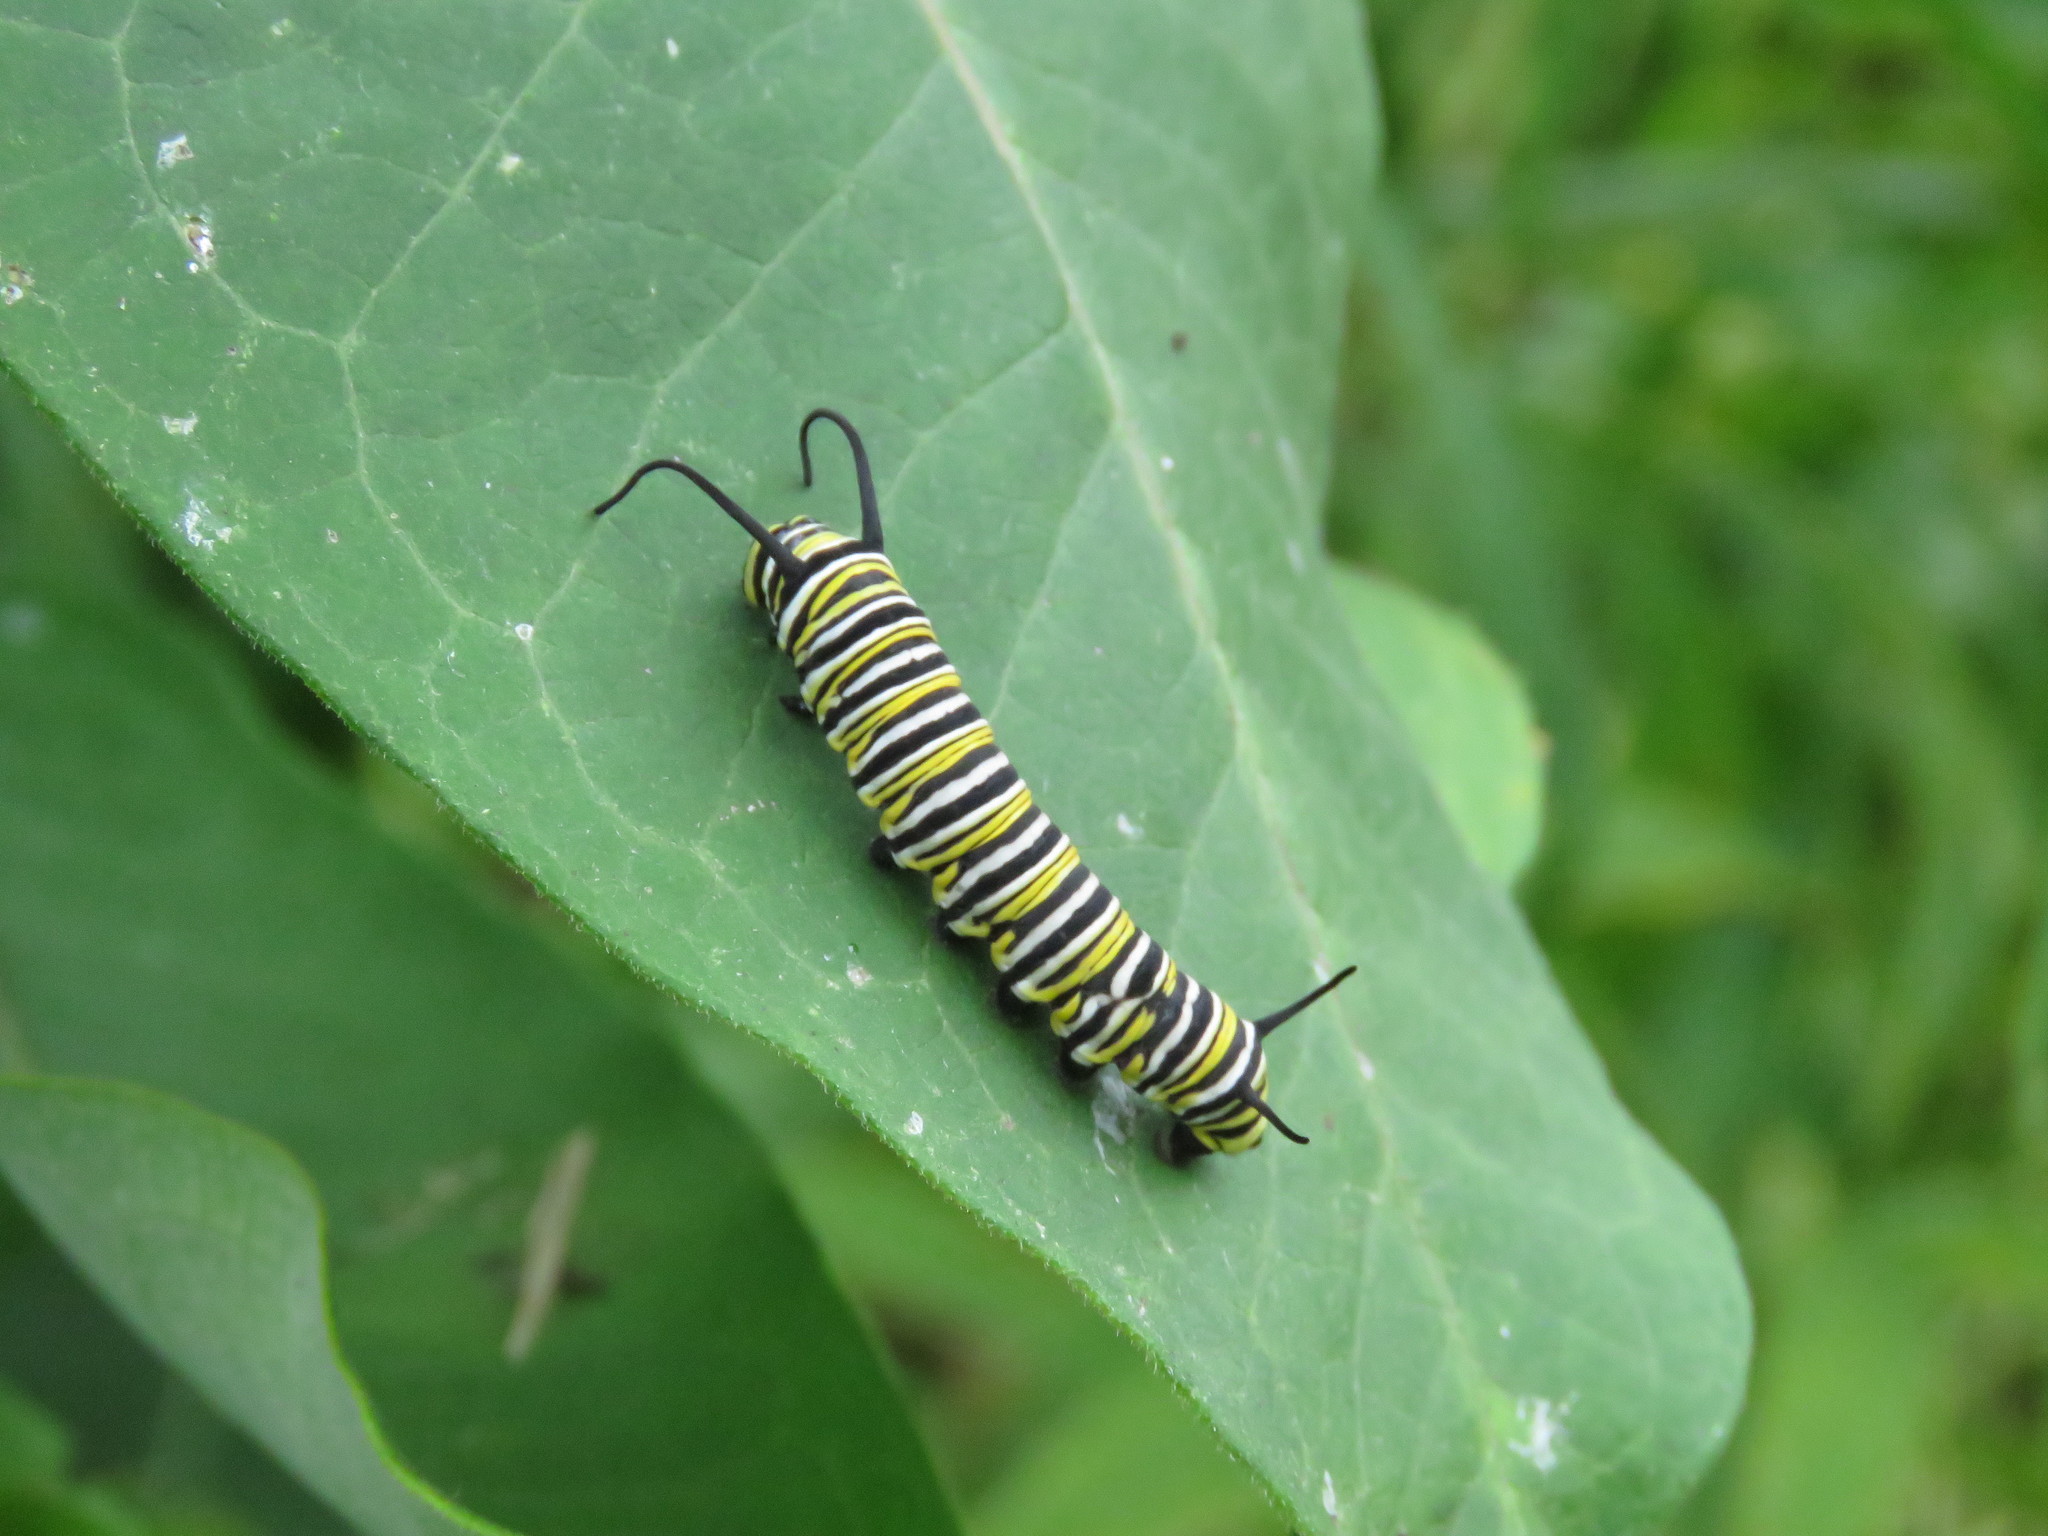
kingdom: Animalia
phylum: Arthropoda
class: Insecta
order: Lepidoptera
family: Nymphalidae
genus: Danaus
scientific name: Danaus plexippus
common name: Monarch
